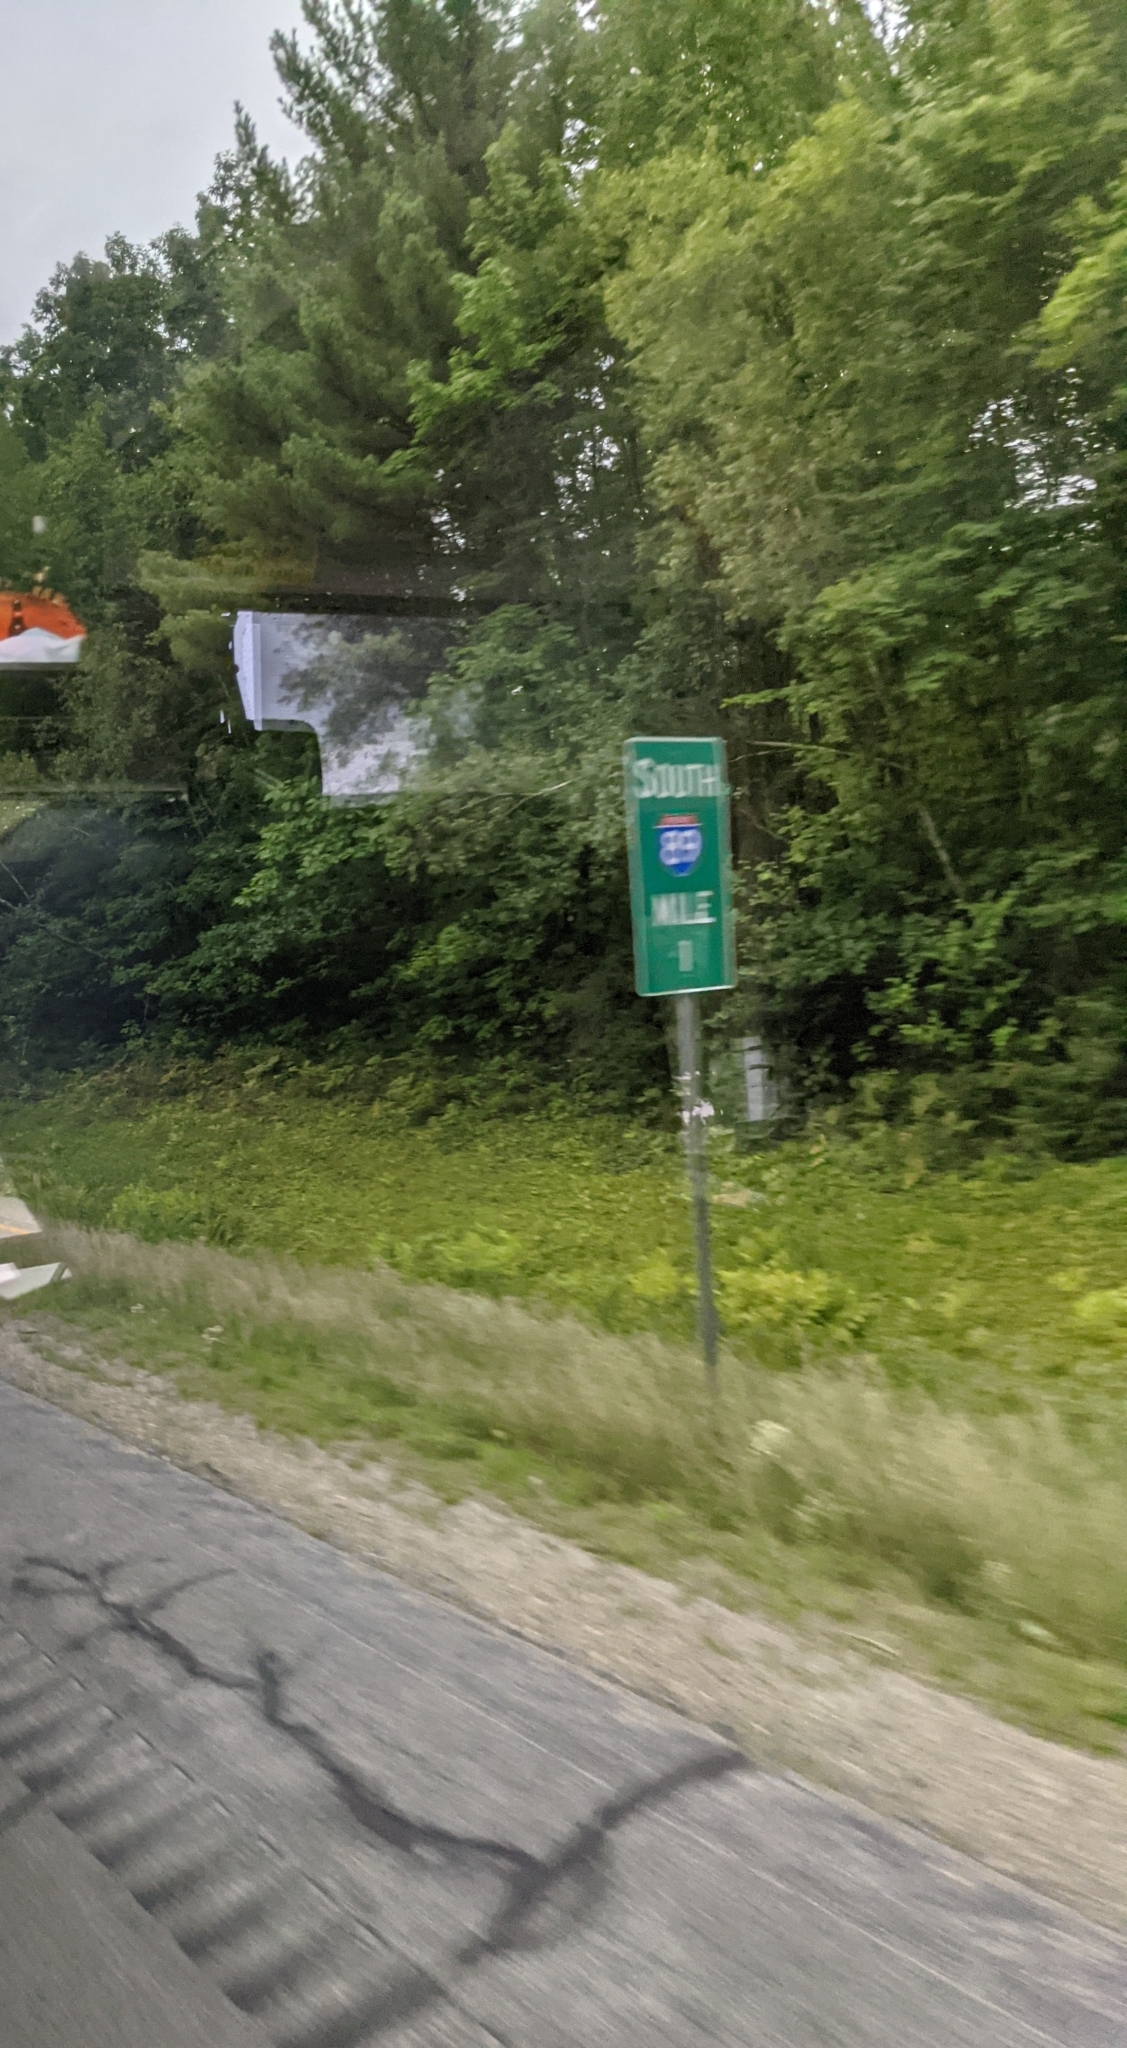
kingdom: Plantae
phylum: Tracheophyta
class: Pinopsida
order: Pinales
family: Pinaceae
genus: Pinus
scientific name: Pinus strobus
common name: Weymouth pine
